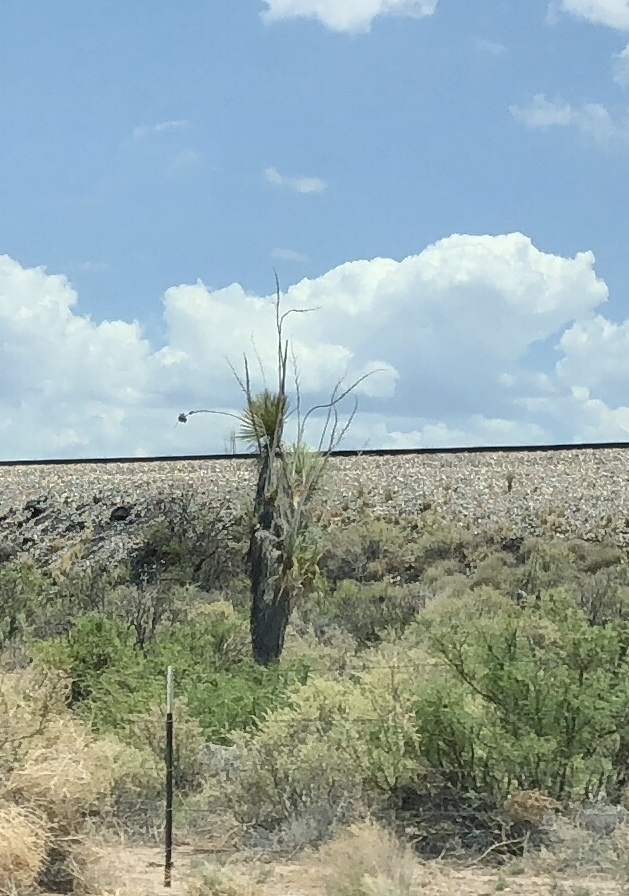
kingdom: Plantae
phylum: Tracheophyta
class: Liliopsida
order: Asparagales
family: Asparagaceae
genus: Yucca
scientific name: Yucca elata
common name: Palmella
